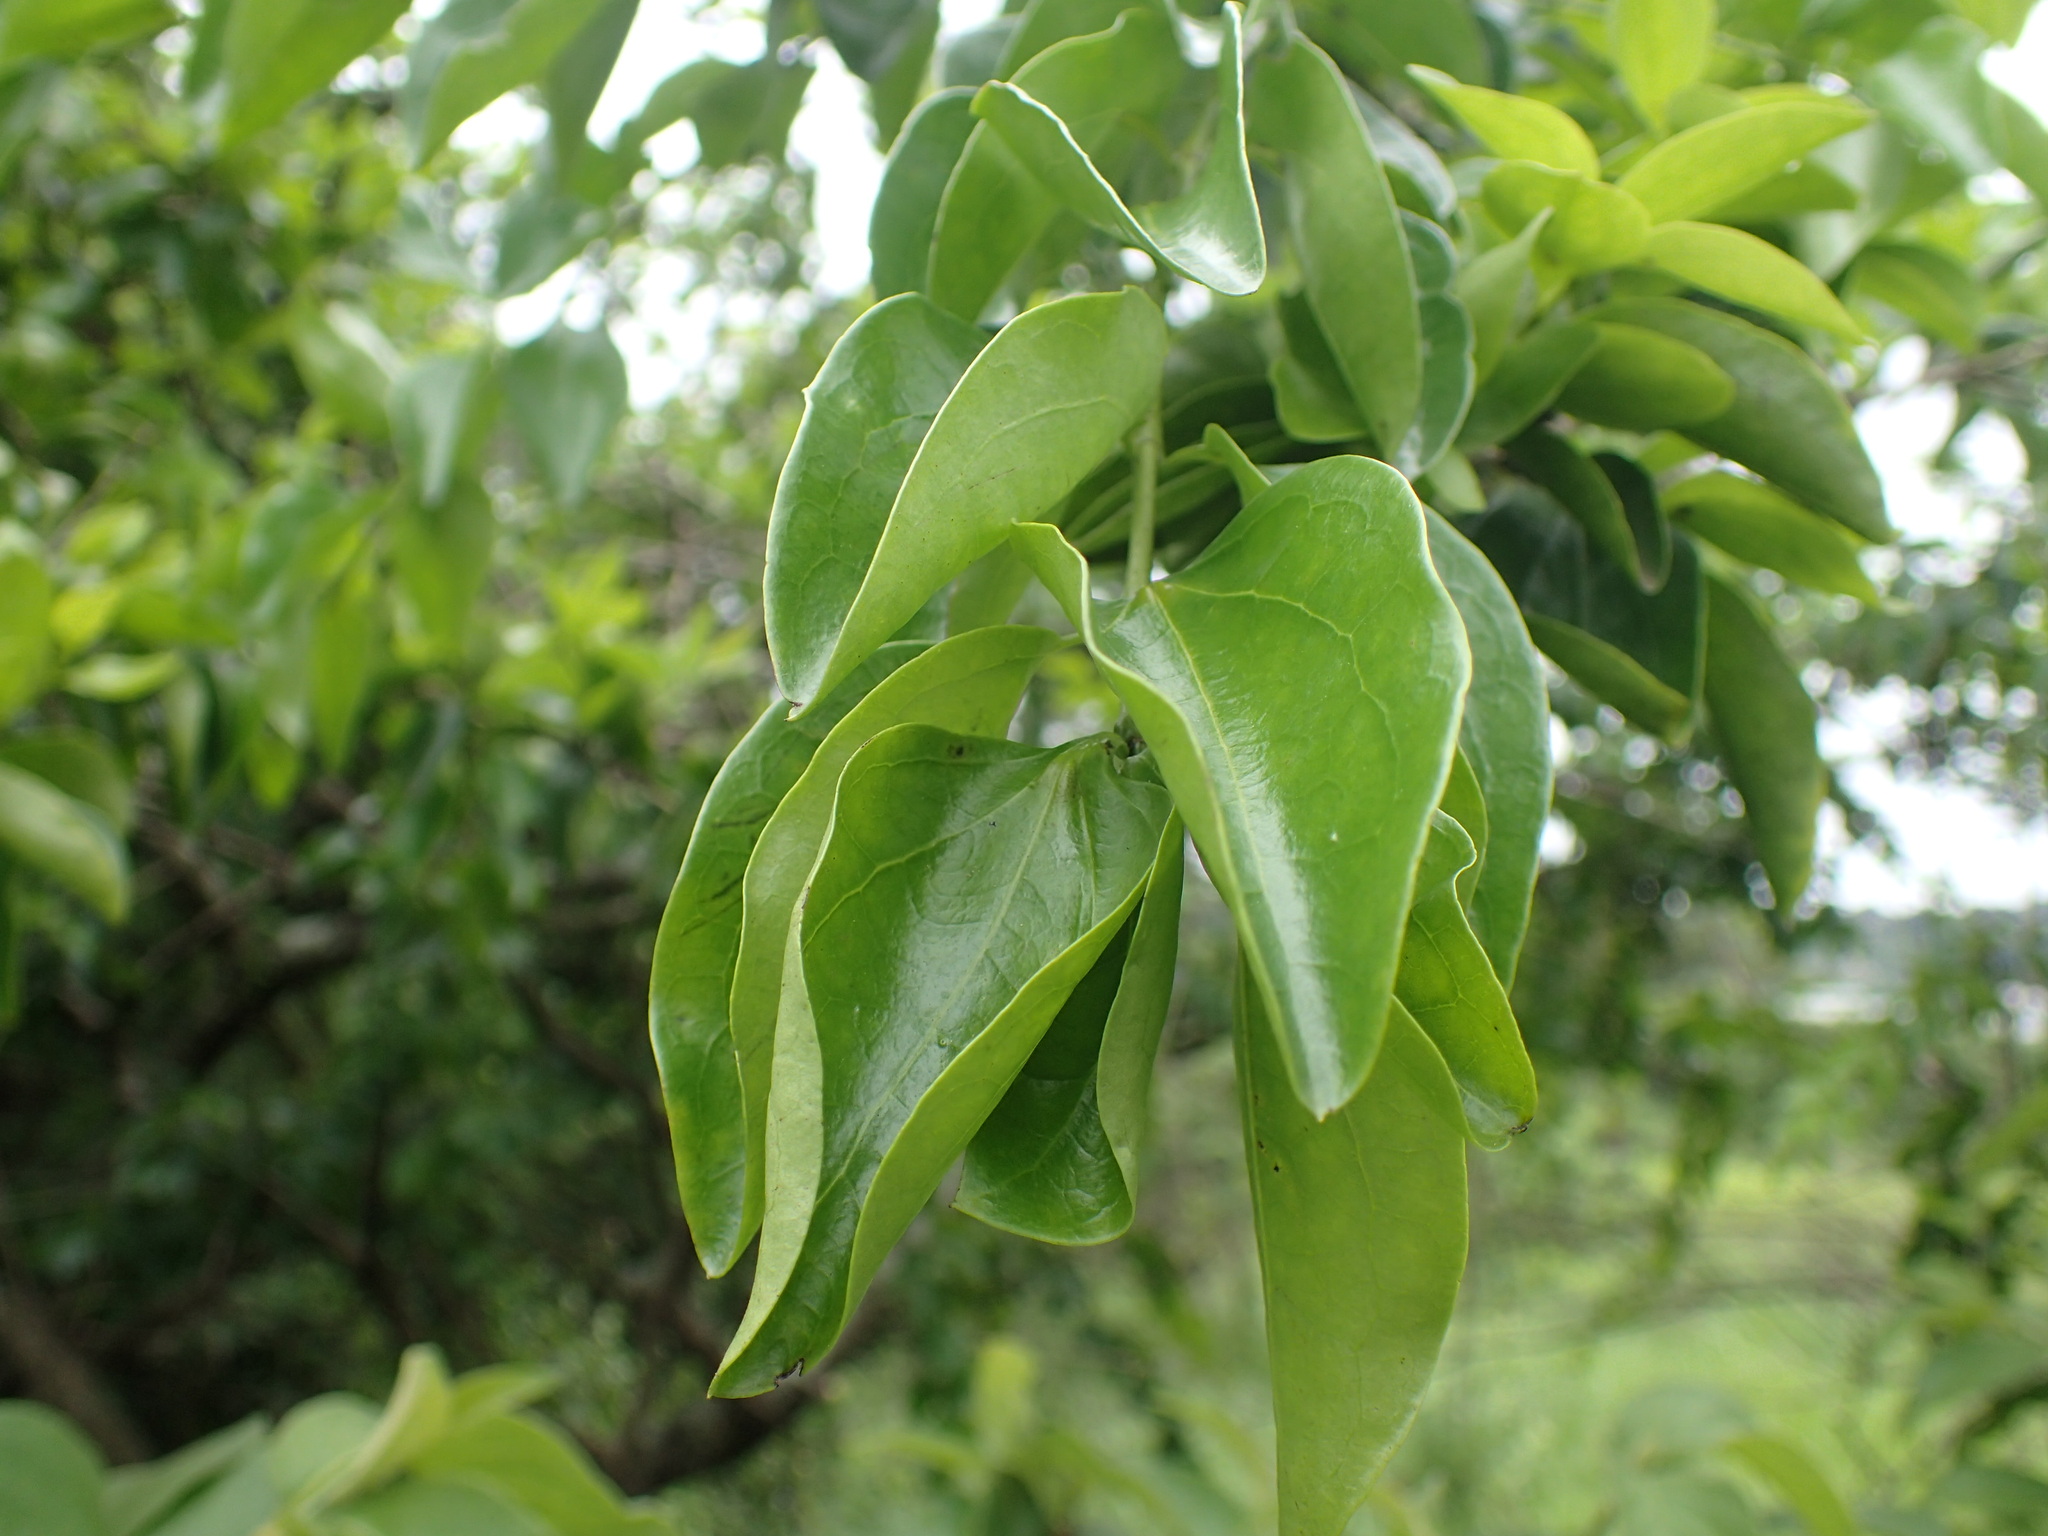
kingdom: Plantae
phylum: Tracheophyta
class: Magnoliopsida
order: Gentianales
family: Loganiaceae
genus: Strychnos
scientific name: Strychnos spinosa
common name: Natal orange
